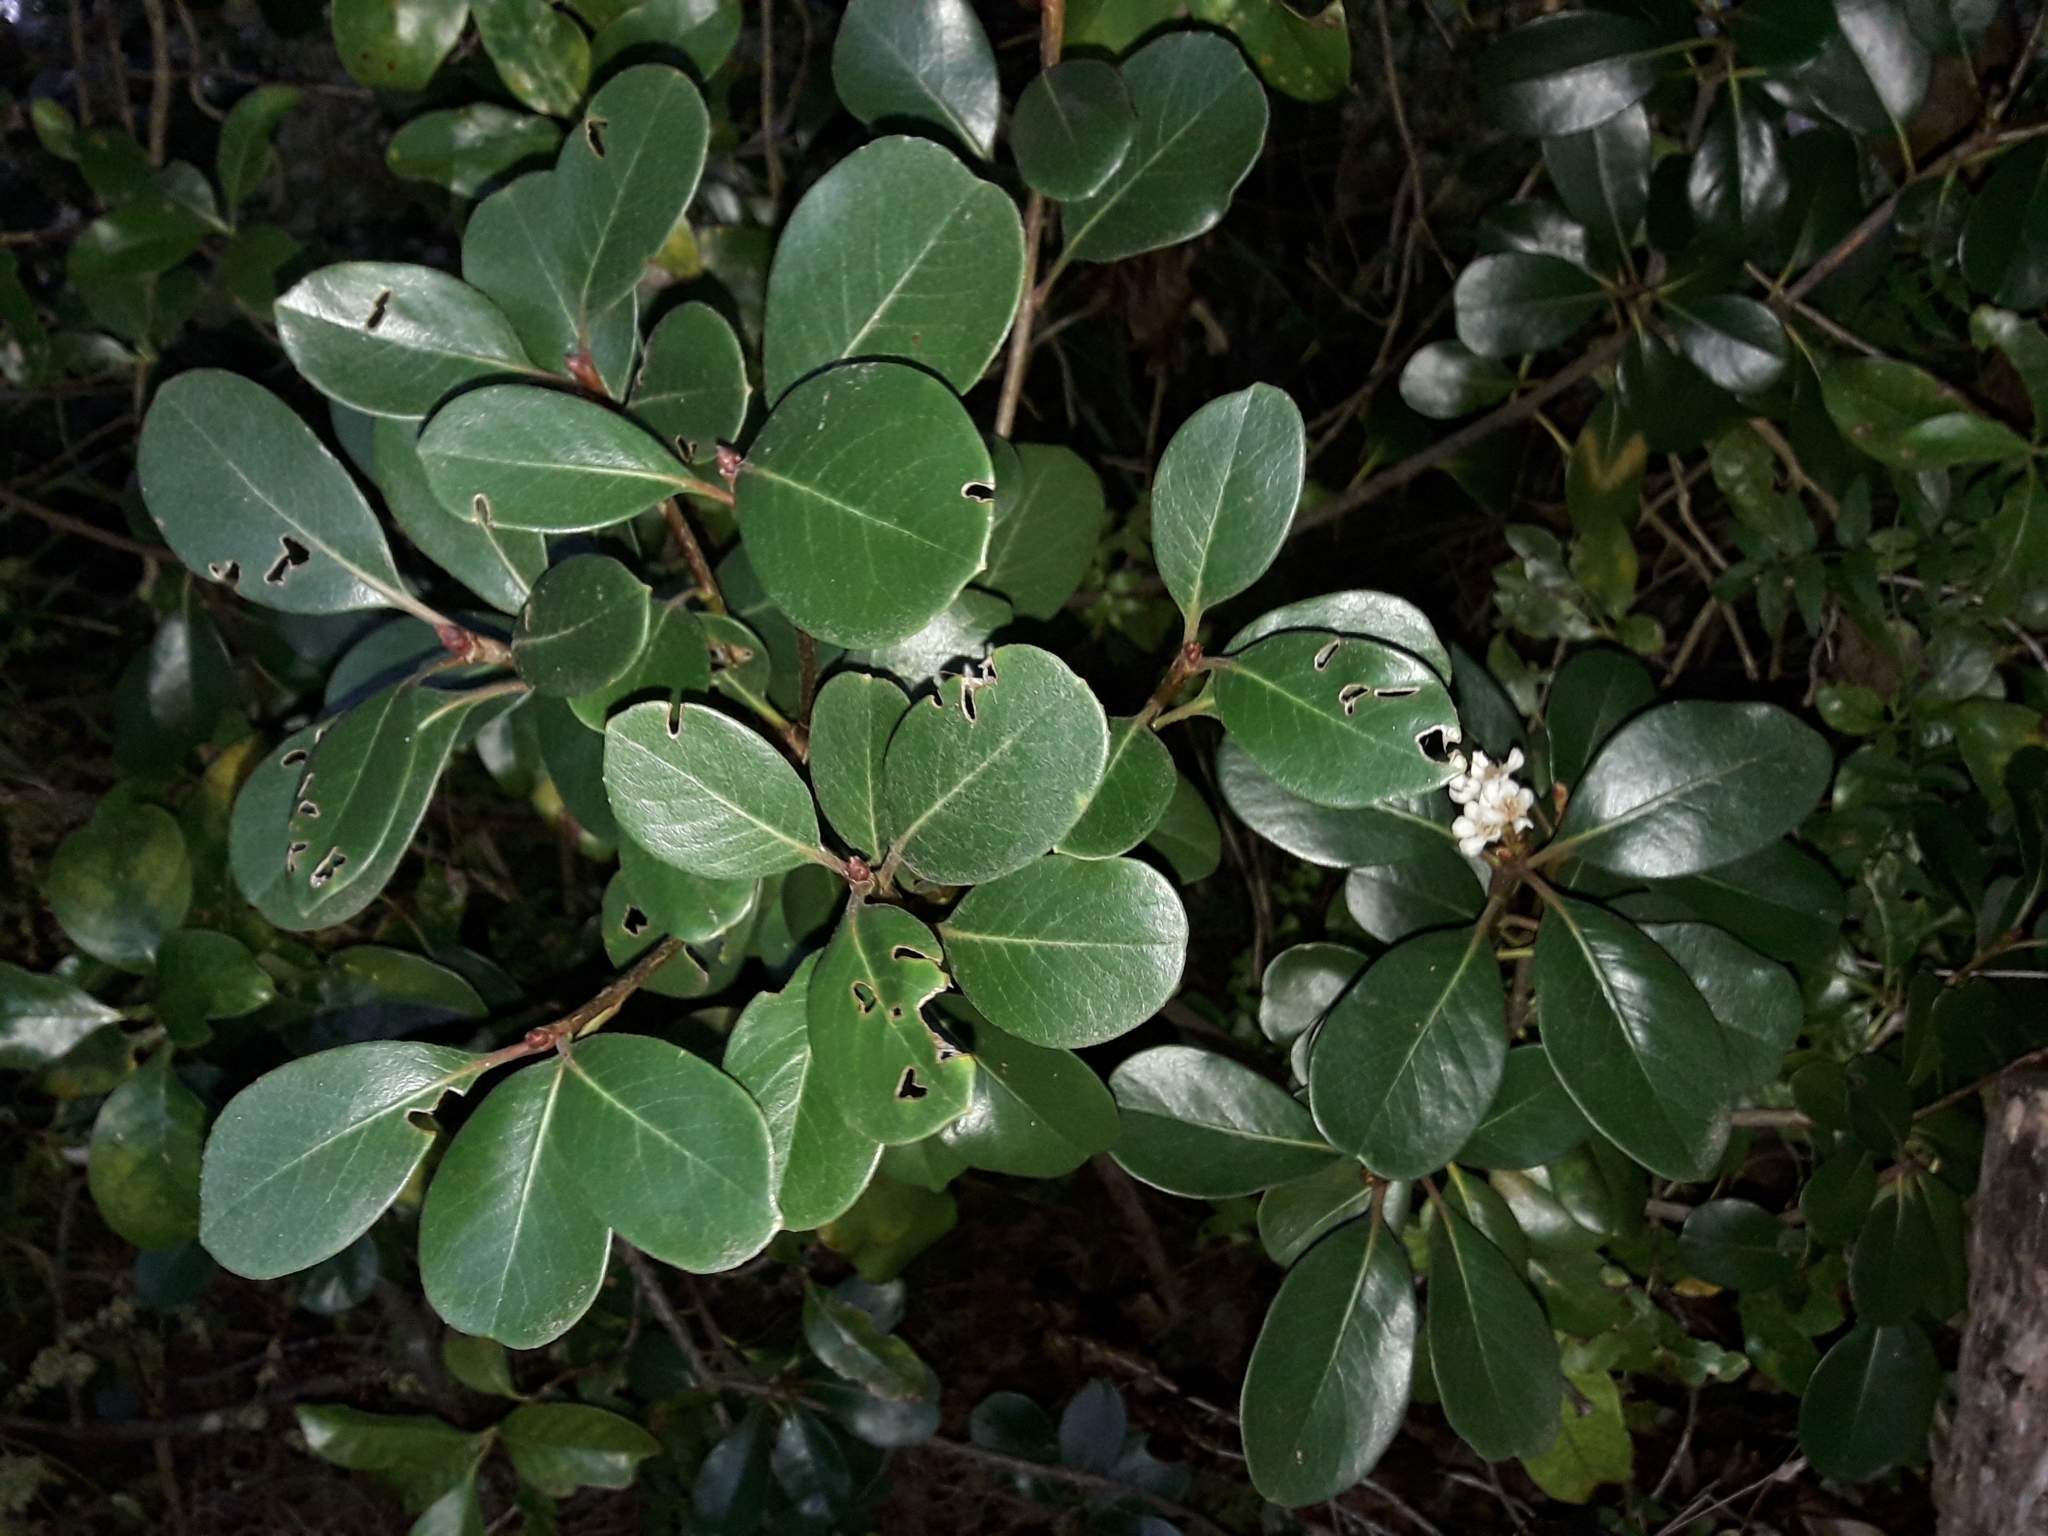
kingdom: Plantae
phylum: Tracheophyta
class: Magnoliopsida
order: Rosales
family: Rosaceae
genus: Rhaphiolepis
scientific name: Rhaphiolepis indica
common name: India-hawthorn
